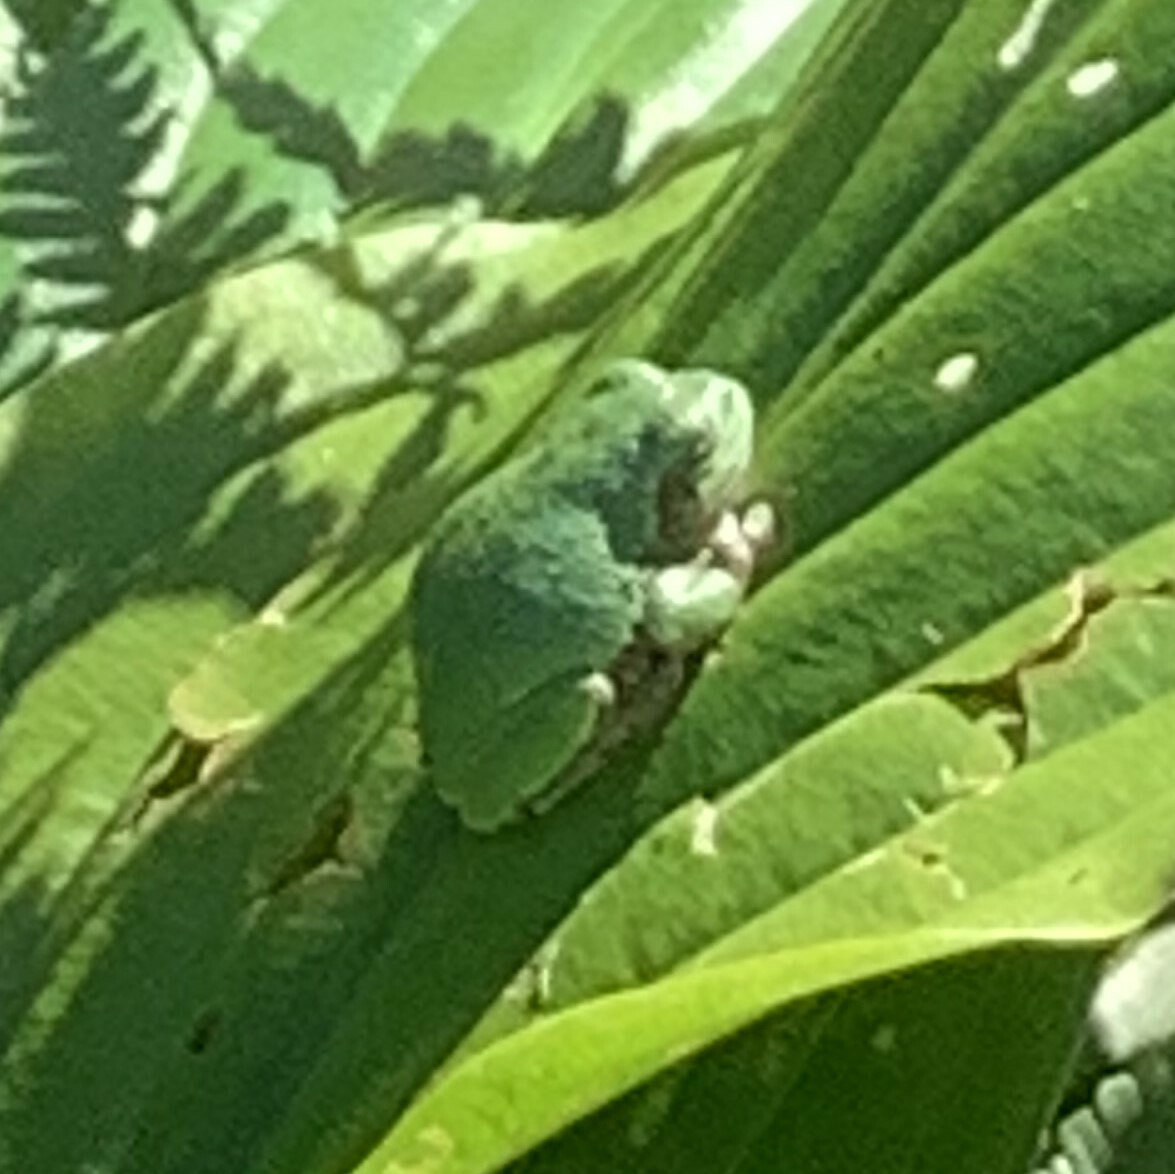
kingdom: Animalia
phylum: Chordata
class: Amphibia
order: Anura
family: Hylidae
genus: Dryophytes
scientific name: Dryophytes versicolor
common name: Gray treefrog
